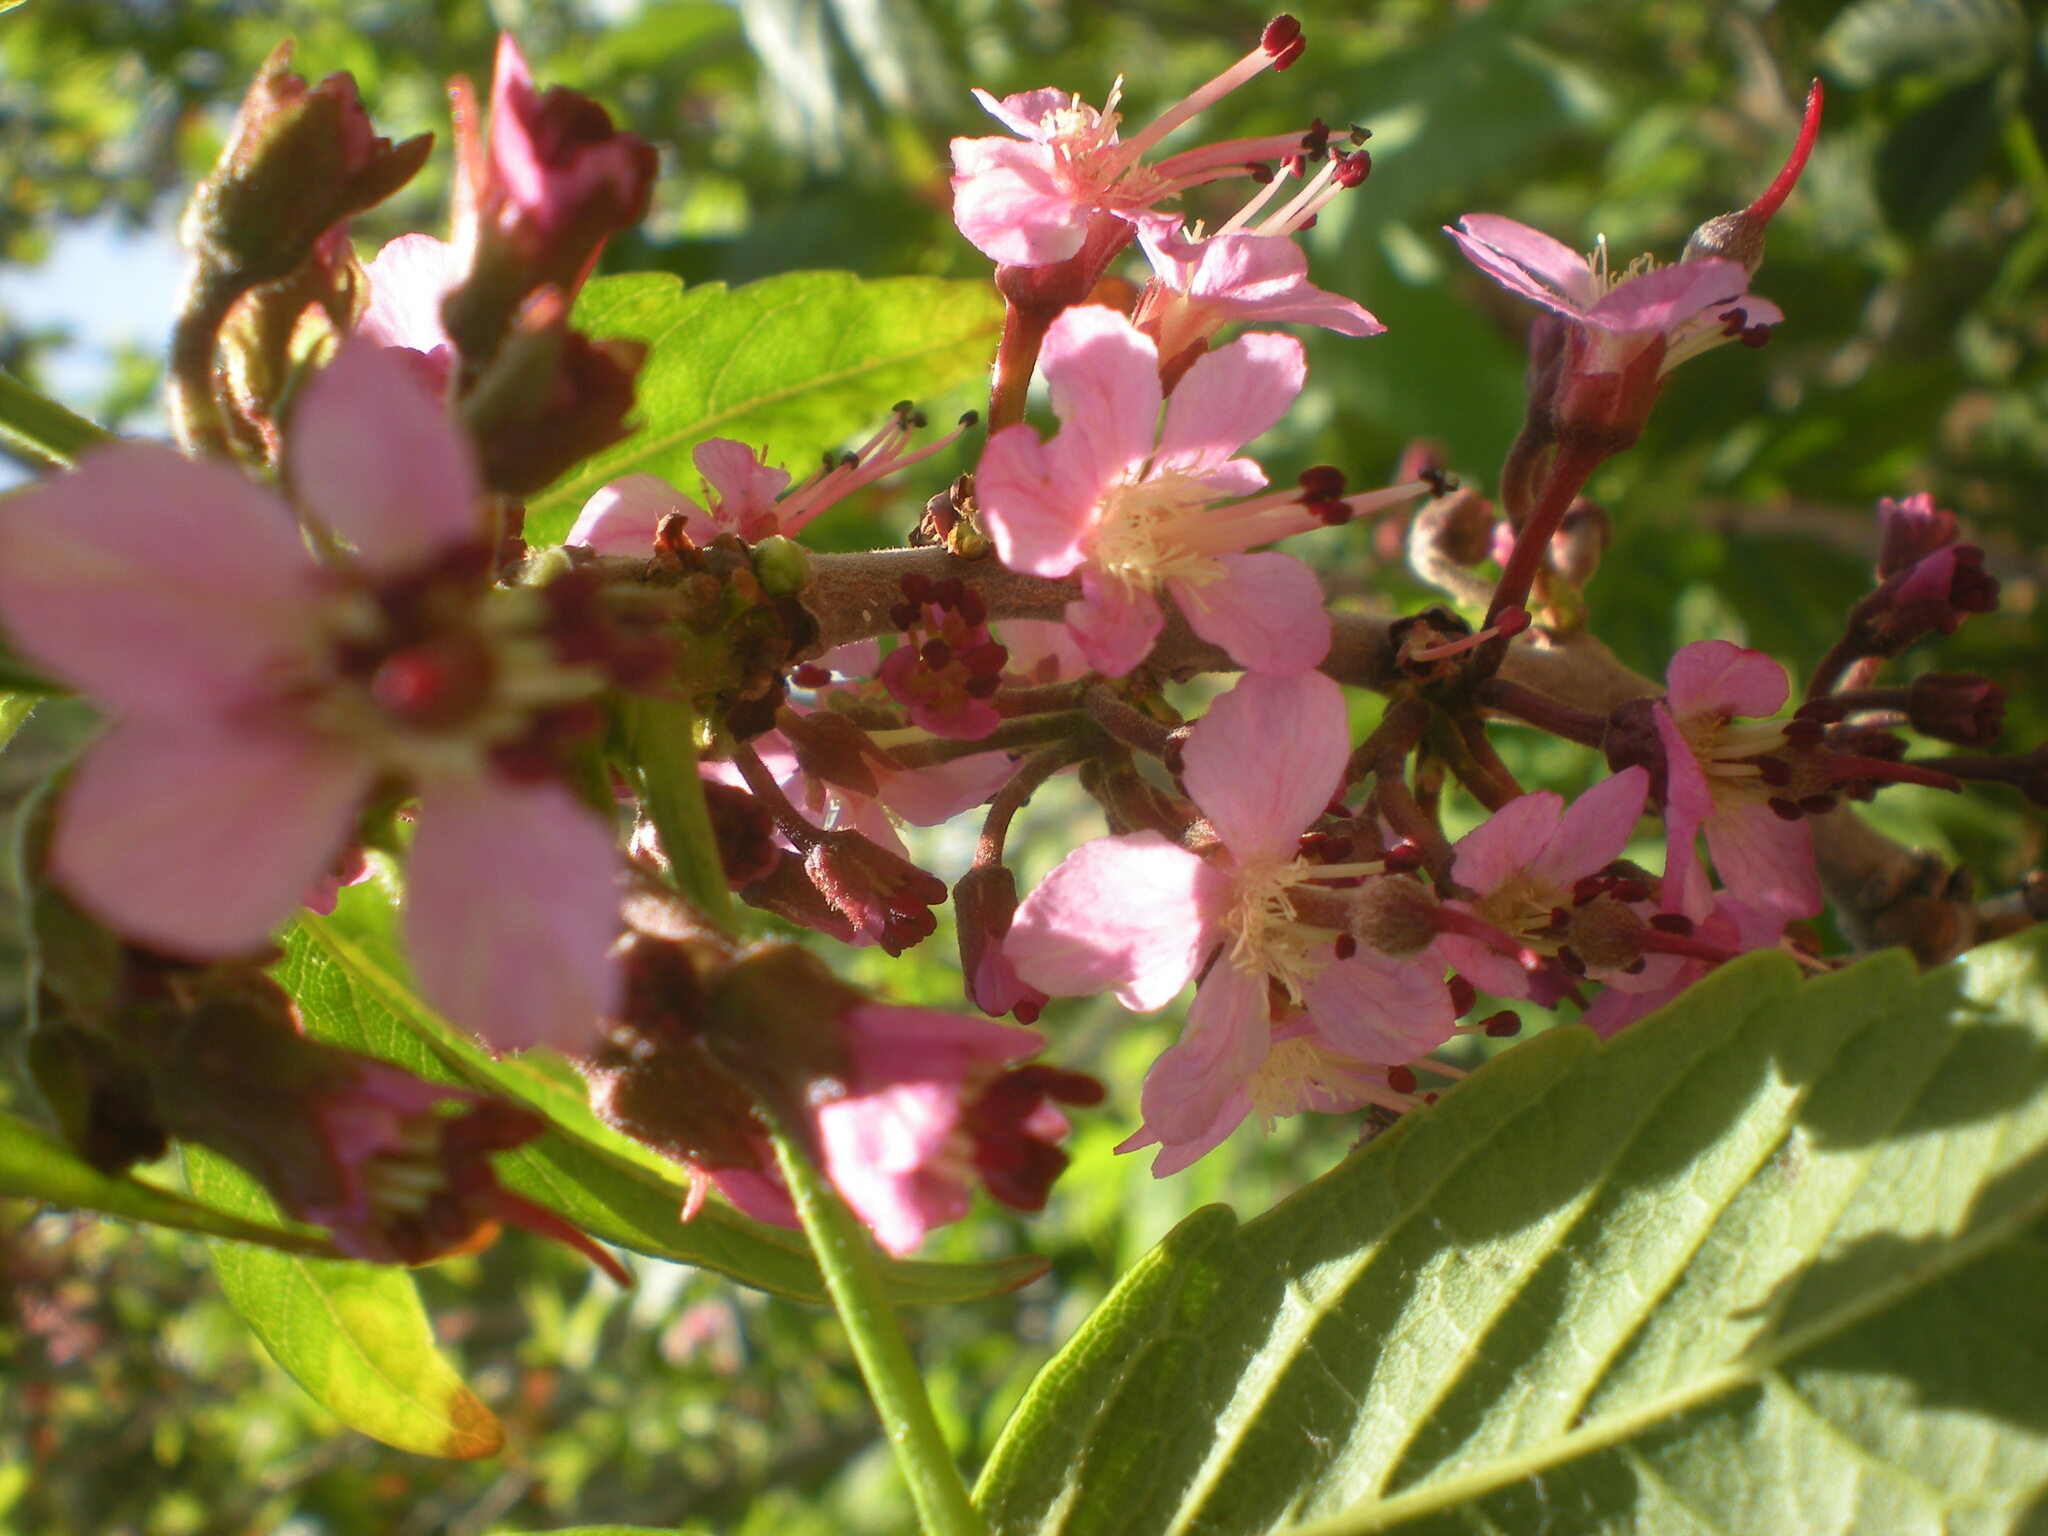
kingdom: Plantae
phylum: Tracheophyta
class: Magnoliopsida
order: Sapindales
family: Sapindaceae
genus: Ungnadia
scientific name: Ungnadia speciosa
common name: Texas-buckeye
